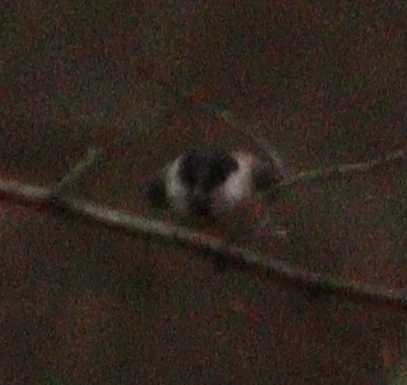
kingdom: Animalia
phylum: Chordata
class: Aves
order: Passeriformes
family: Paridae
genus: Poecile
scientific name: Poecile palustris
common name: Marsh tit
